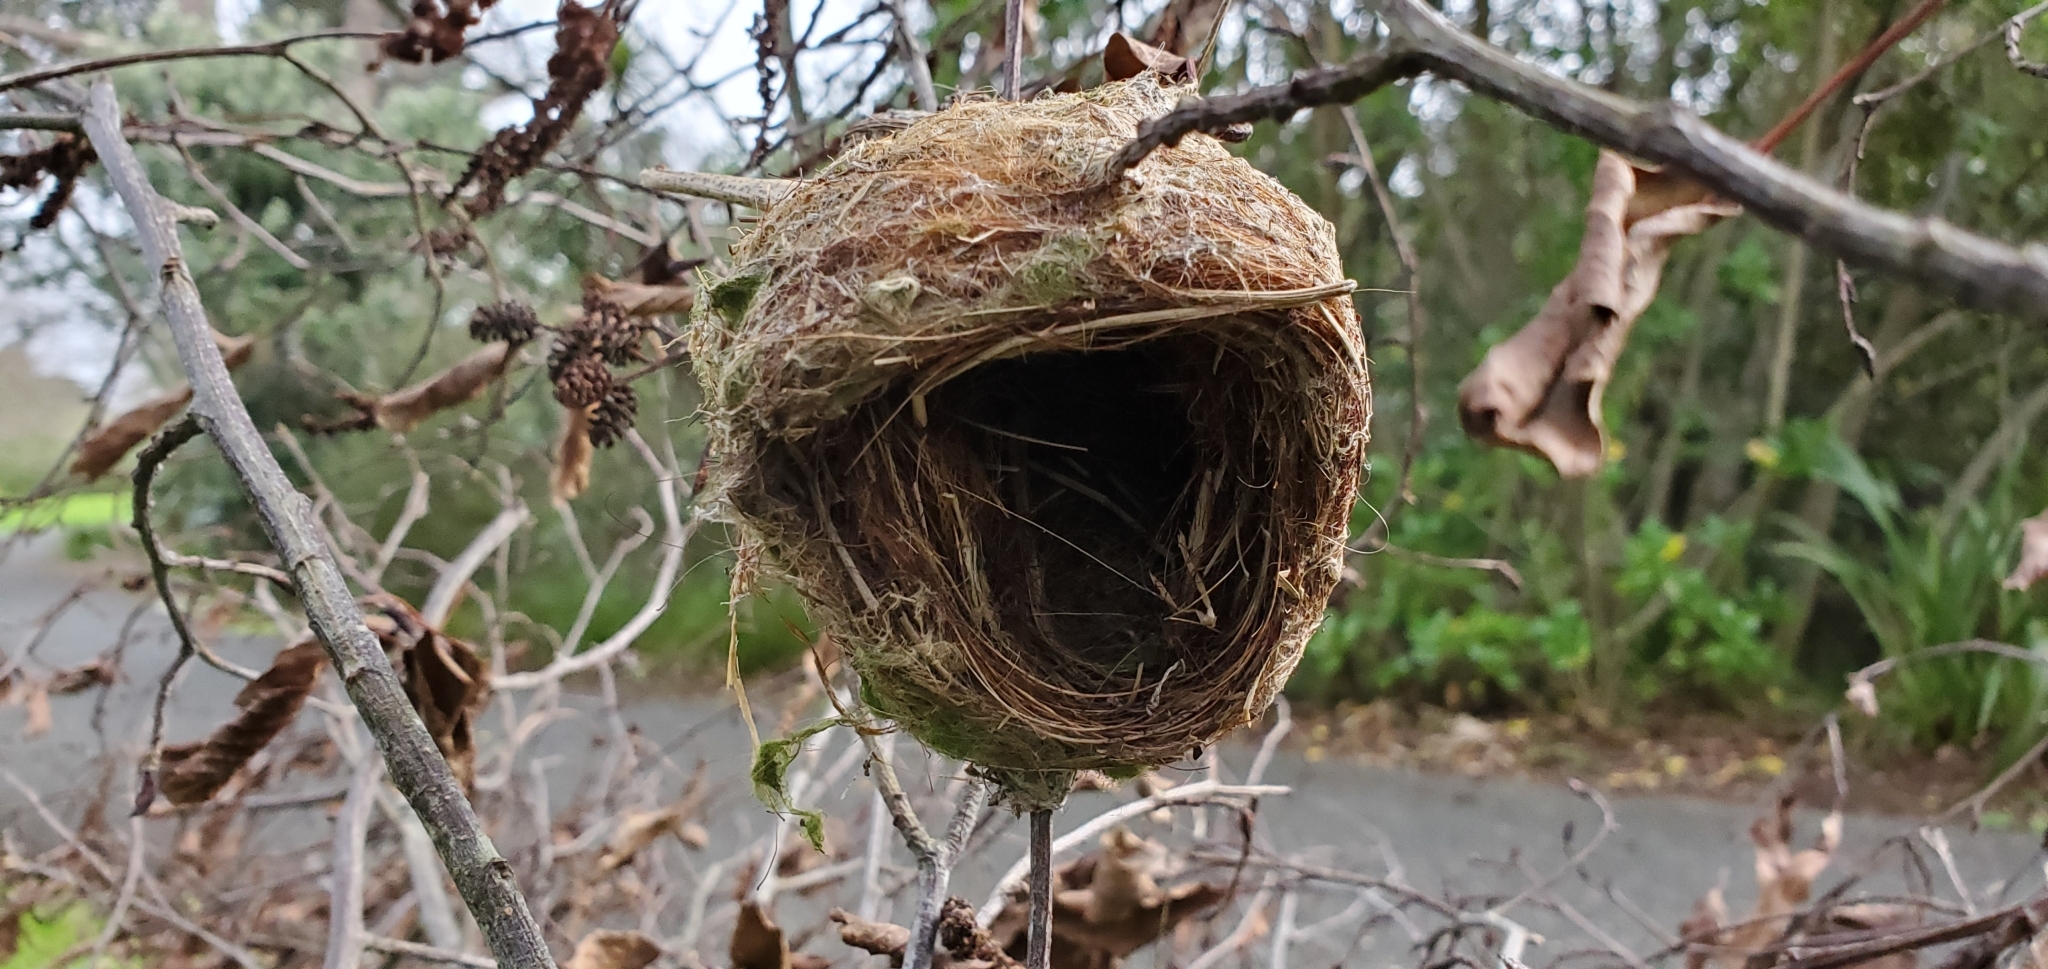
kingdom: Animalia
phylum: Chordata
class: Aves
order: Passeriformes
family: Rhipiduridae
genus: Rhipidura
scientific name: Rhipidura fuliginosa
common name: New zealand fantail
